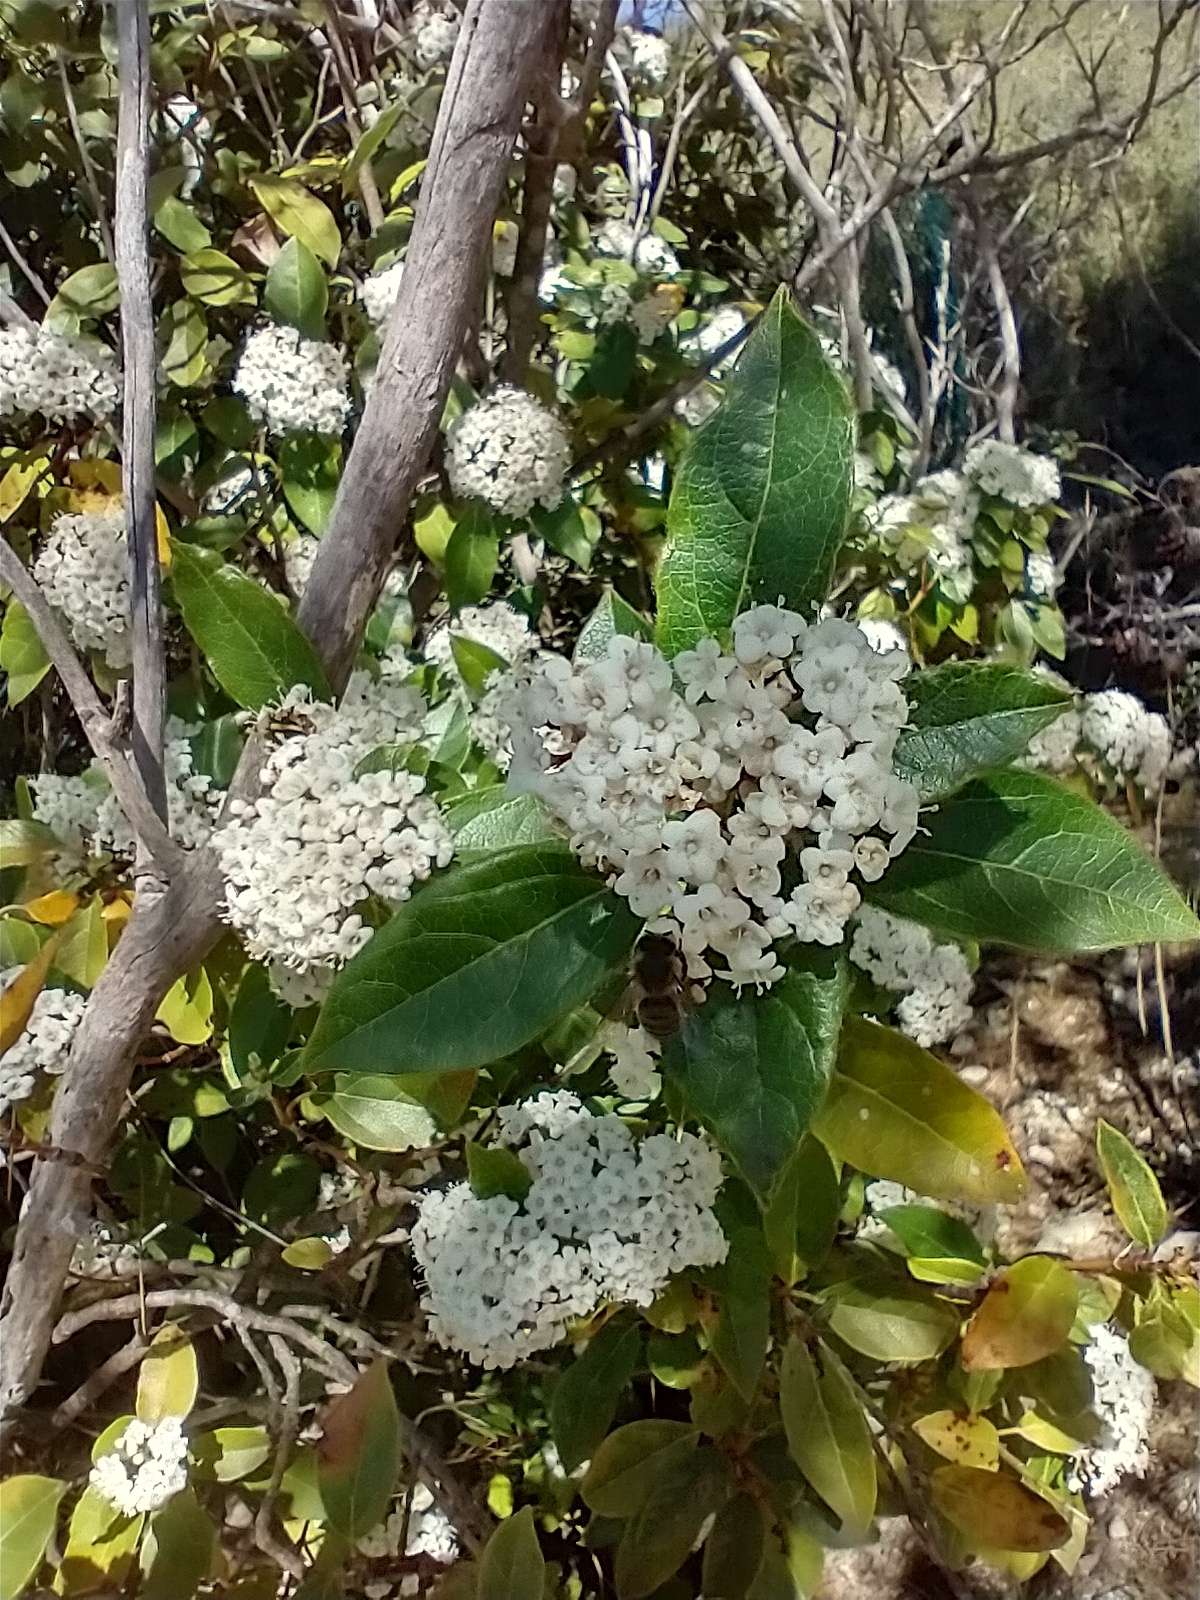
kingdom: Plantae
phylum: Tracheophyta
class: Magnoliopsida
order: Dipsacales
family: Viburnaceae
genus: Viburnum
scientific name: Viburnum tinus
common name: Laurustinus
